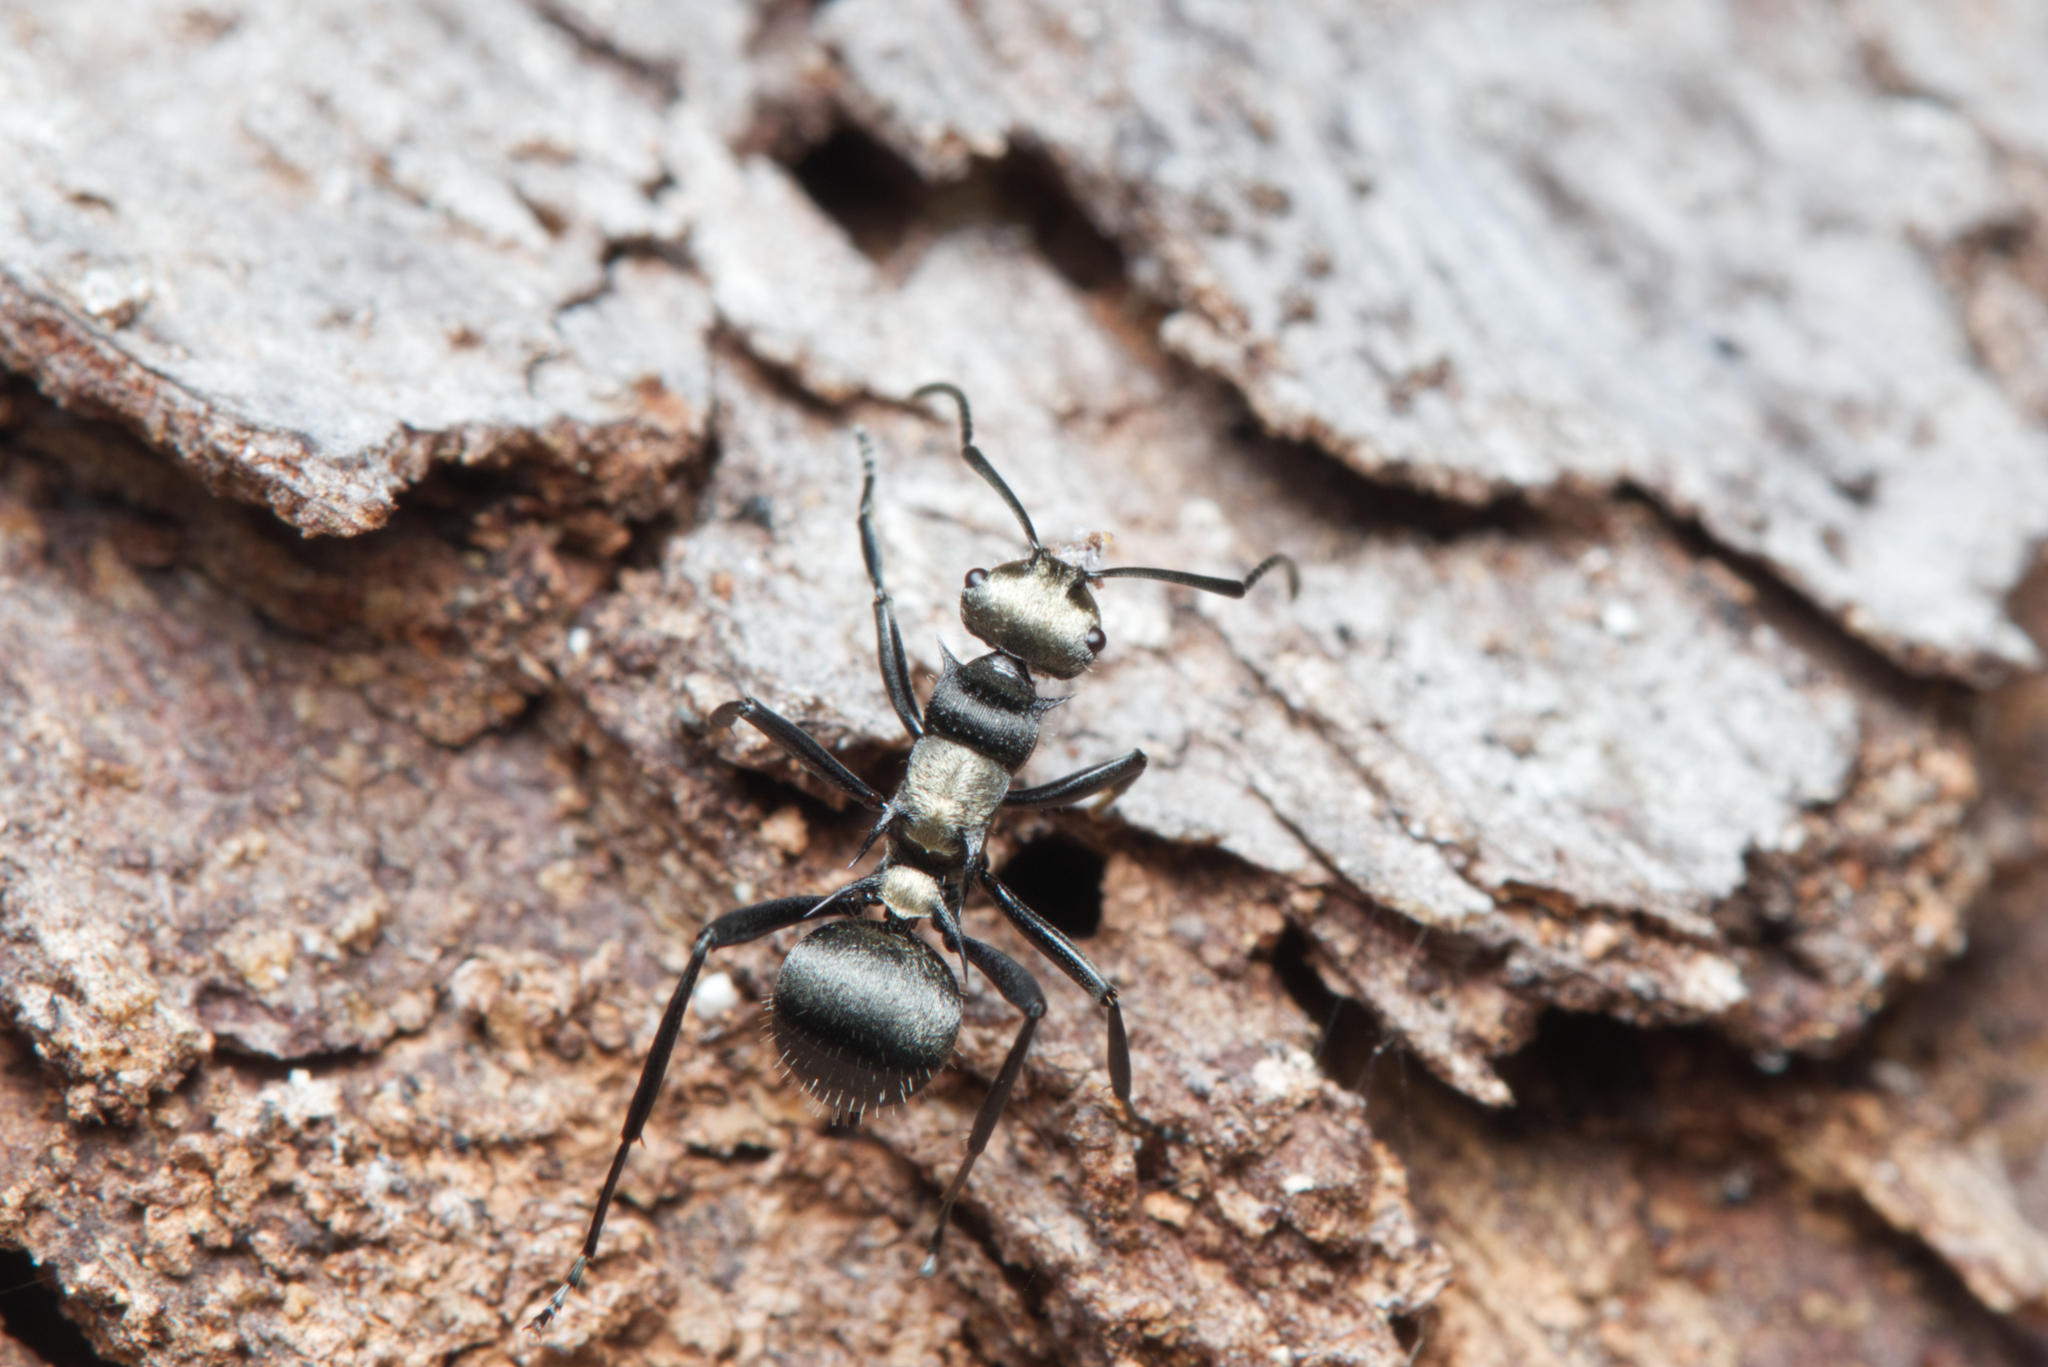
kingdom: Animalia
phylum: Arthropoda
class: Insecta
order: Hymenoptera
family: Formicidae
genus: Polyrhachis
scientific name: Polyrhachis daemeli
